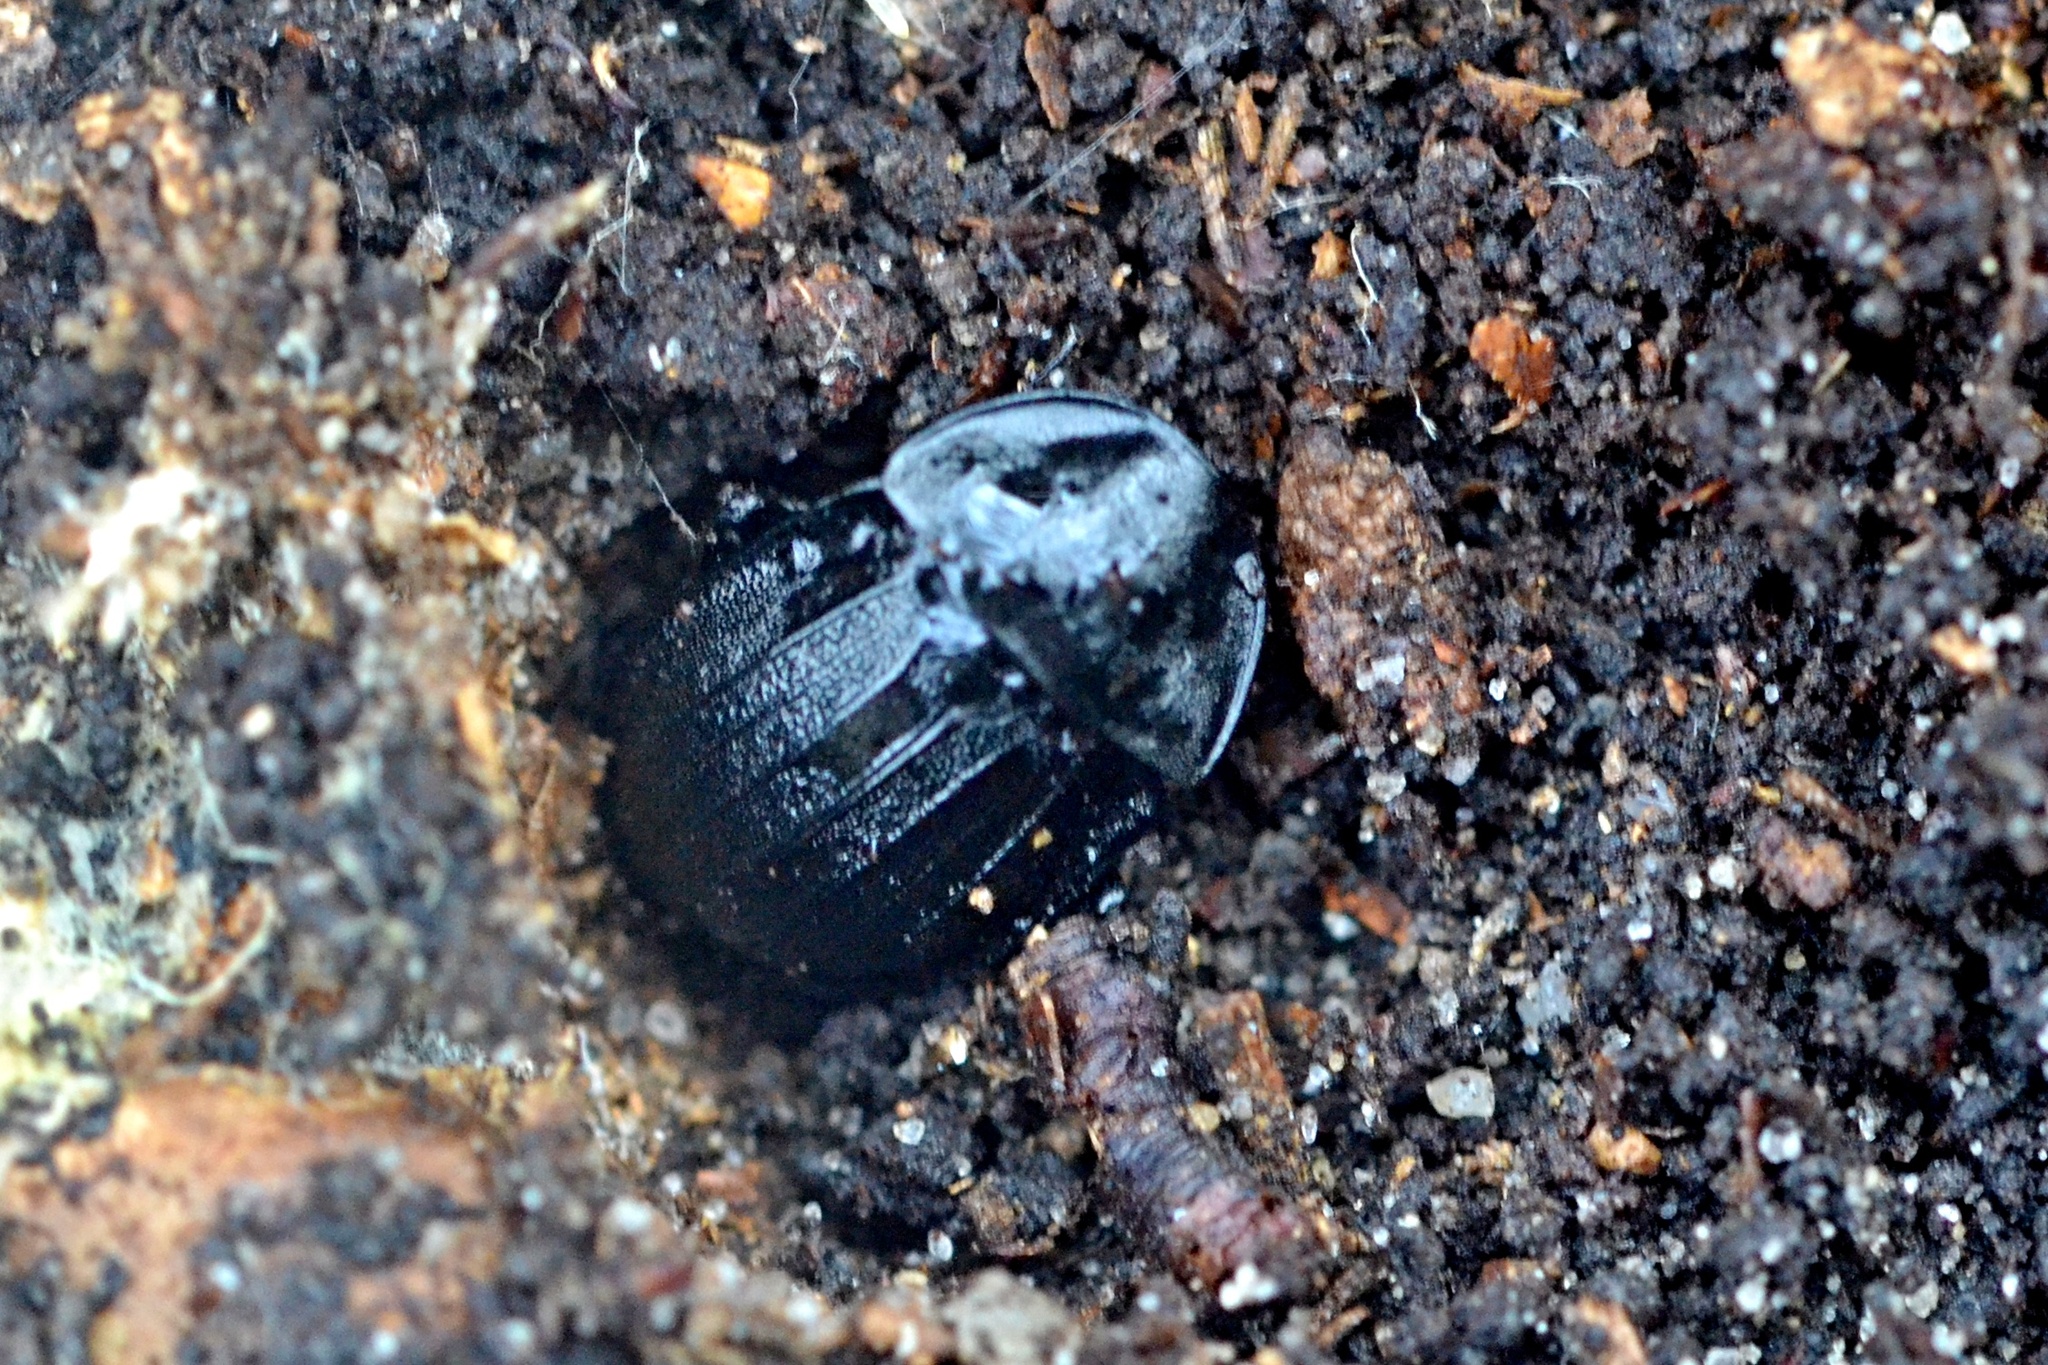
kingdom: Animalia
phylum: Arthropoda
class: Insecta
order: Coleoptera
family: Staphylinidae
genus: Silpha
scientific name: Silpha atrata
